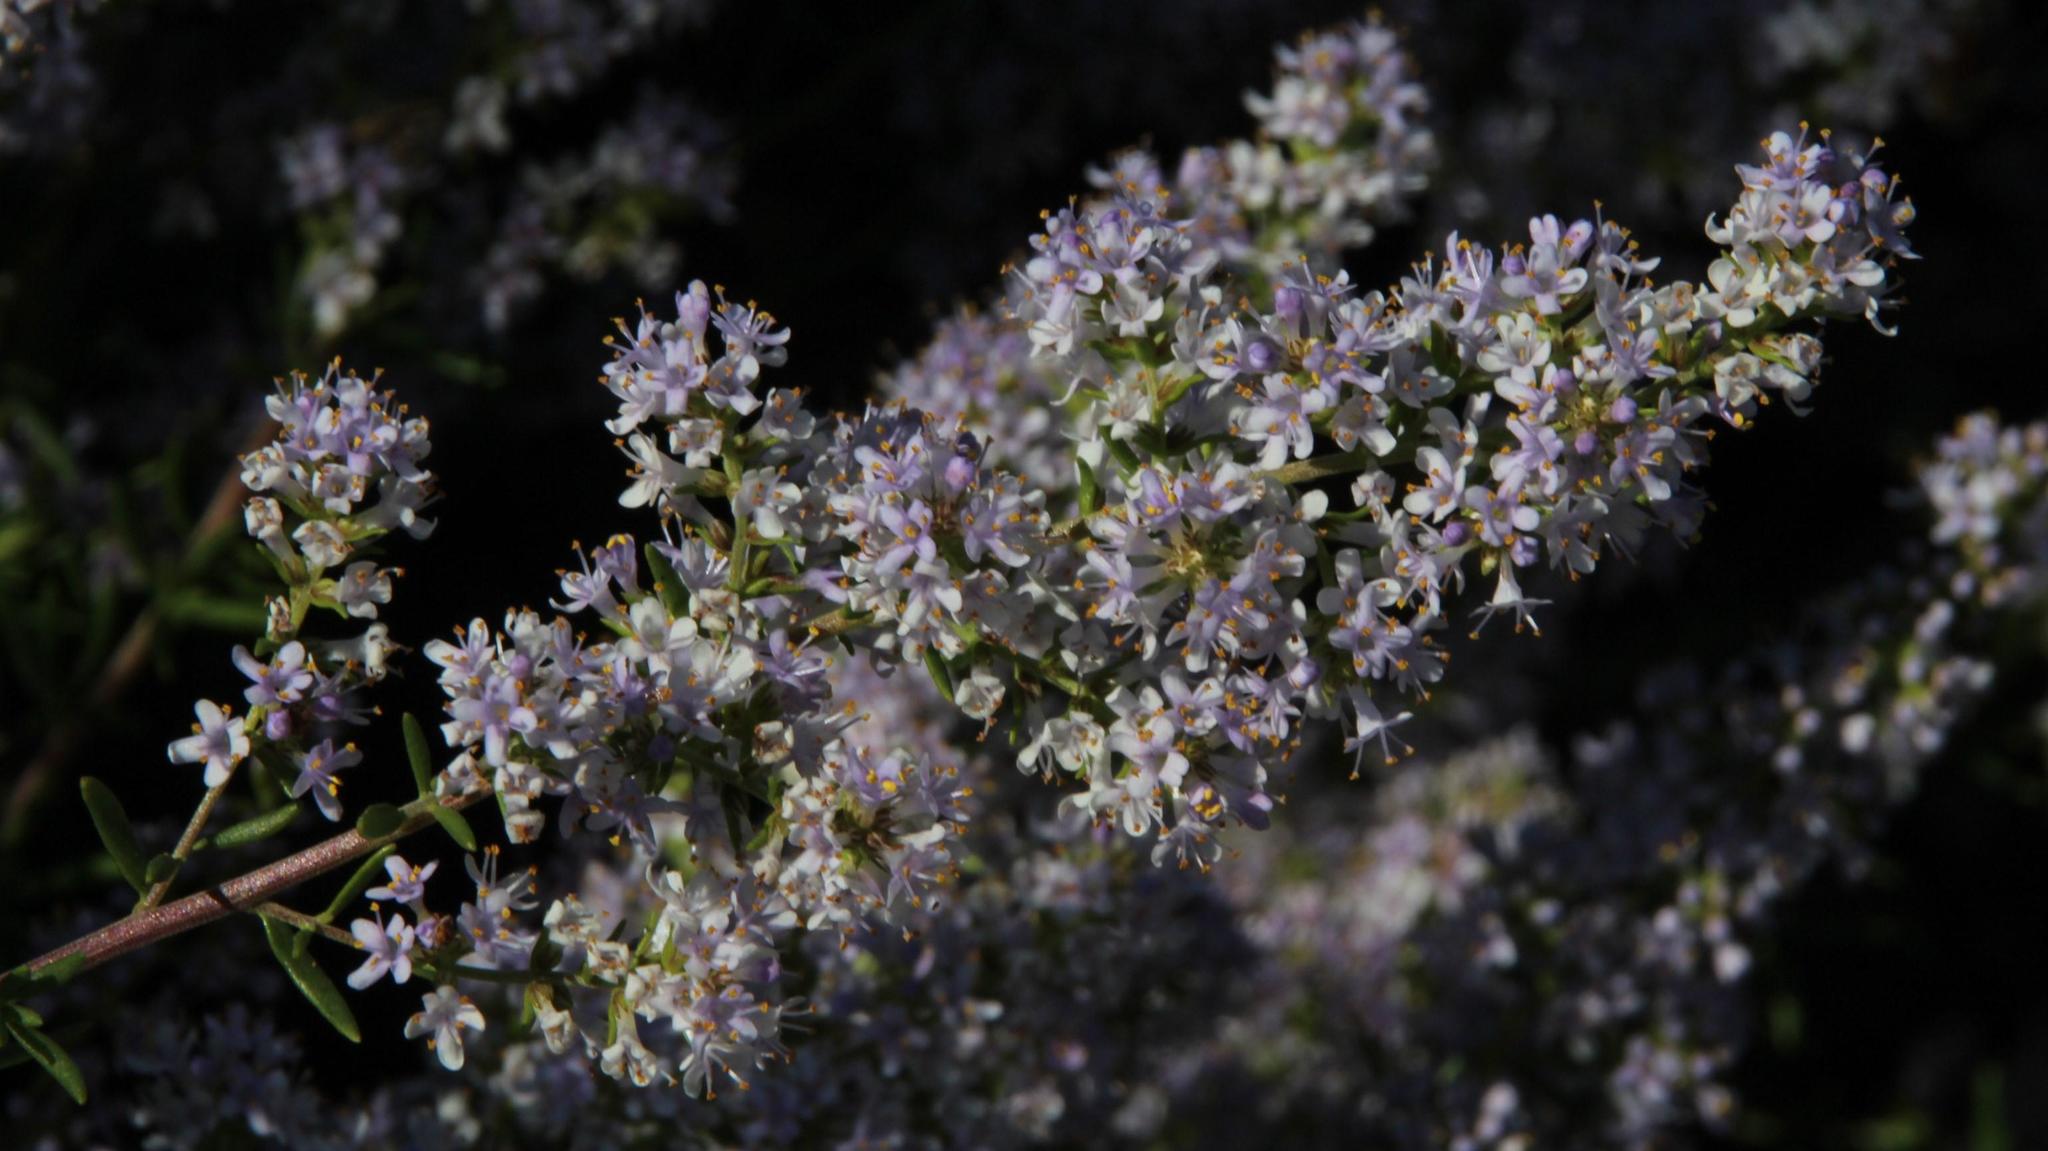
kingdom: Animalia
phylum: Arthropoda
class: Insecta
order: Hymenoptera
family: Apidae
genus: Apis
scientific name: Apis mellifera
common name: Honey bee
